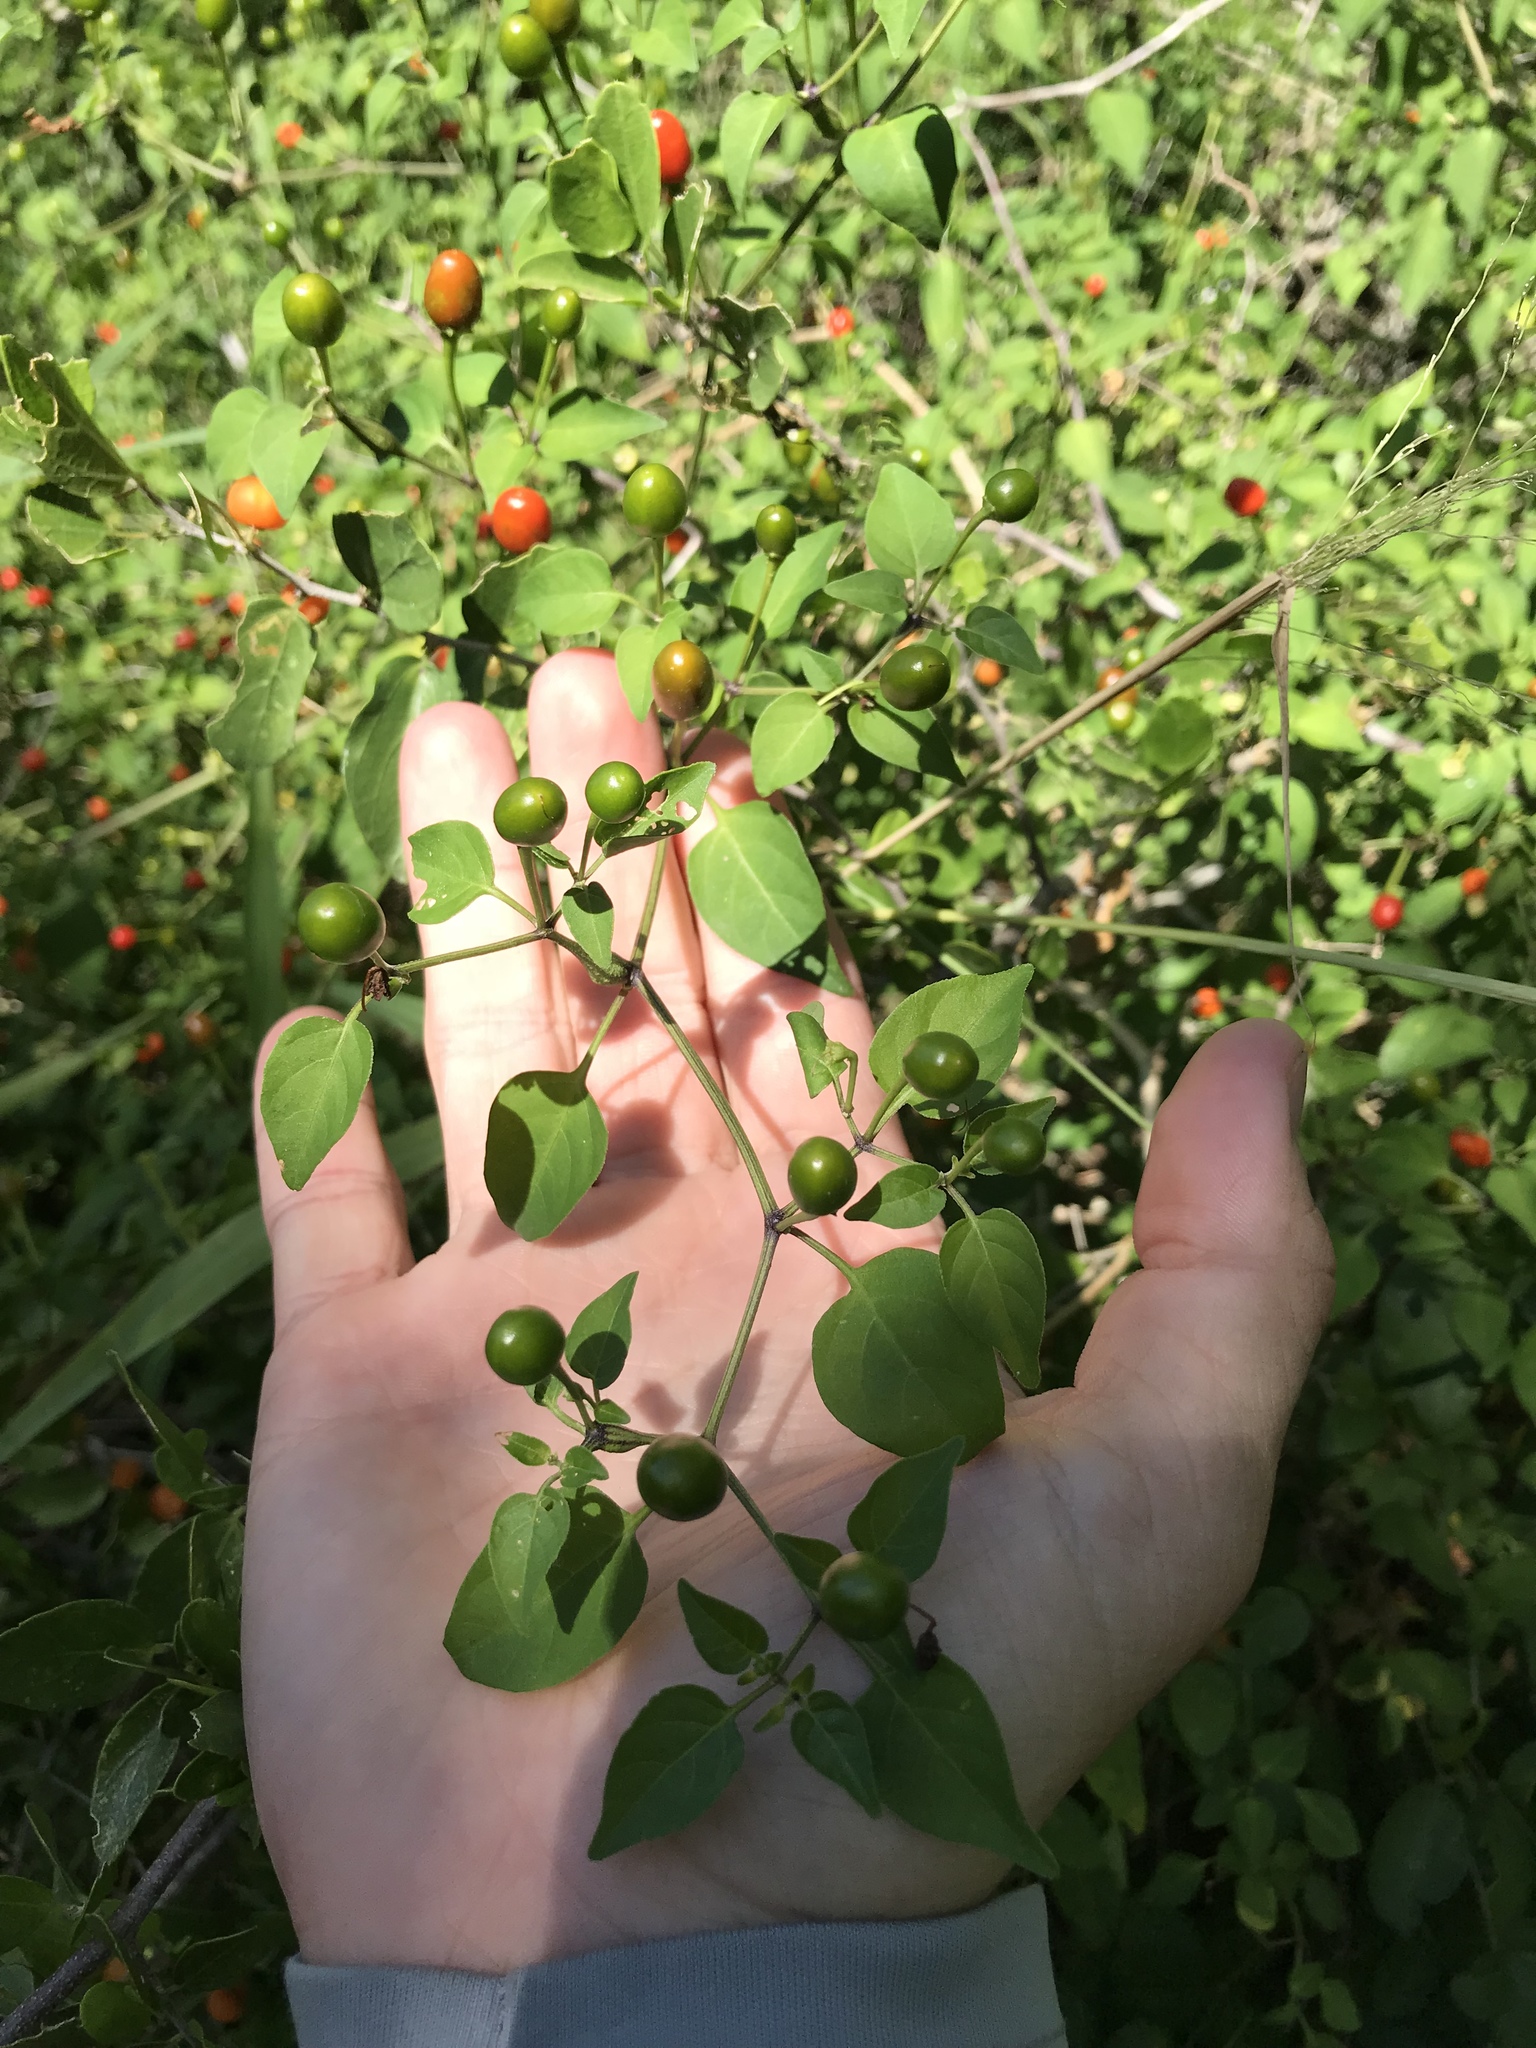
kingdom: Plantae
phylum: Tracheophyta
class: Magnoliopsida
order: Solanales
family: Solanaceae
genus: Capsicum
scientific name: Capsicum annuum
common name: Sweet pepper
